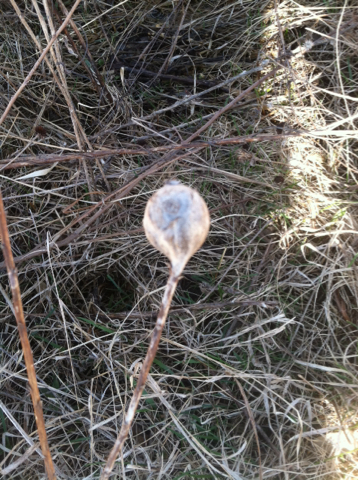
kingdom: Animalia
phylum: Arthropoda
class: Insecta
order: Diptera
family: Tephritidae
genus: Eurosta
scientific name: Eurosta solidaginis
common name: Goldenrod gall fly
